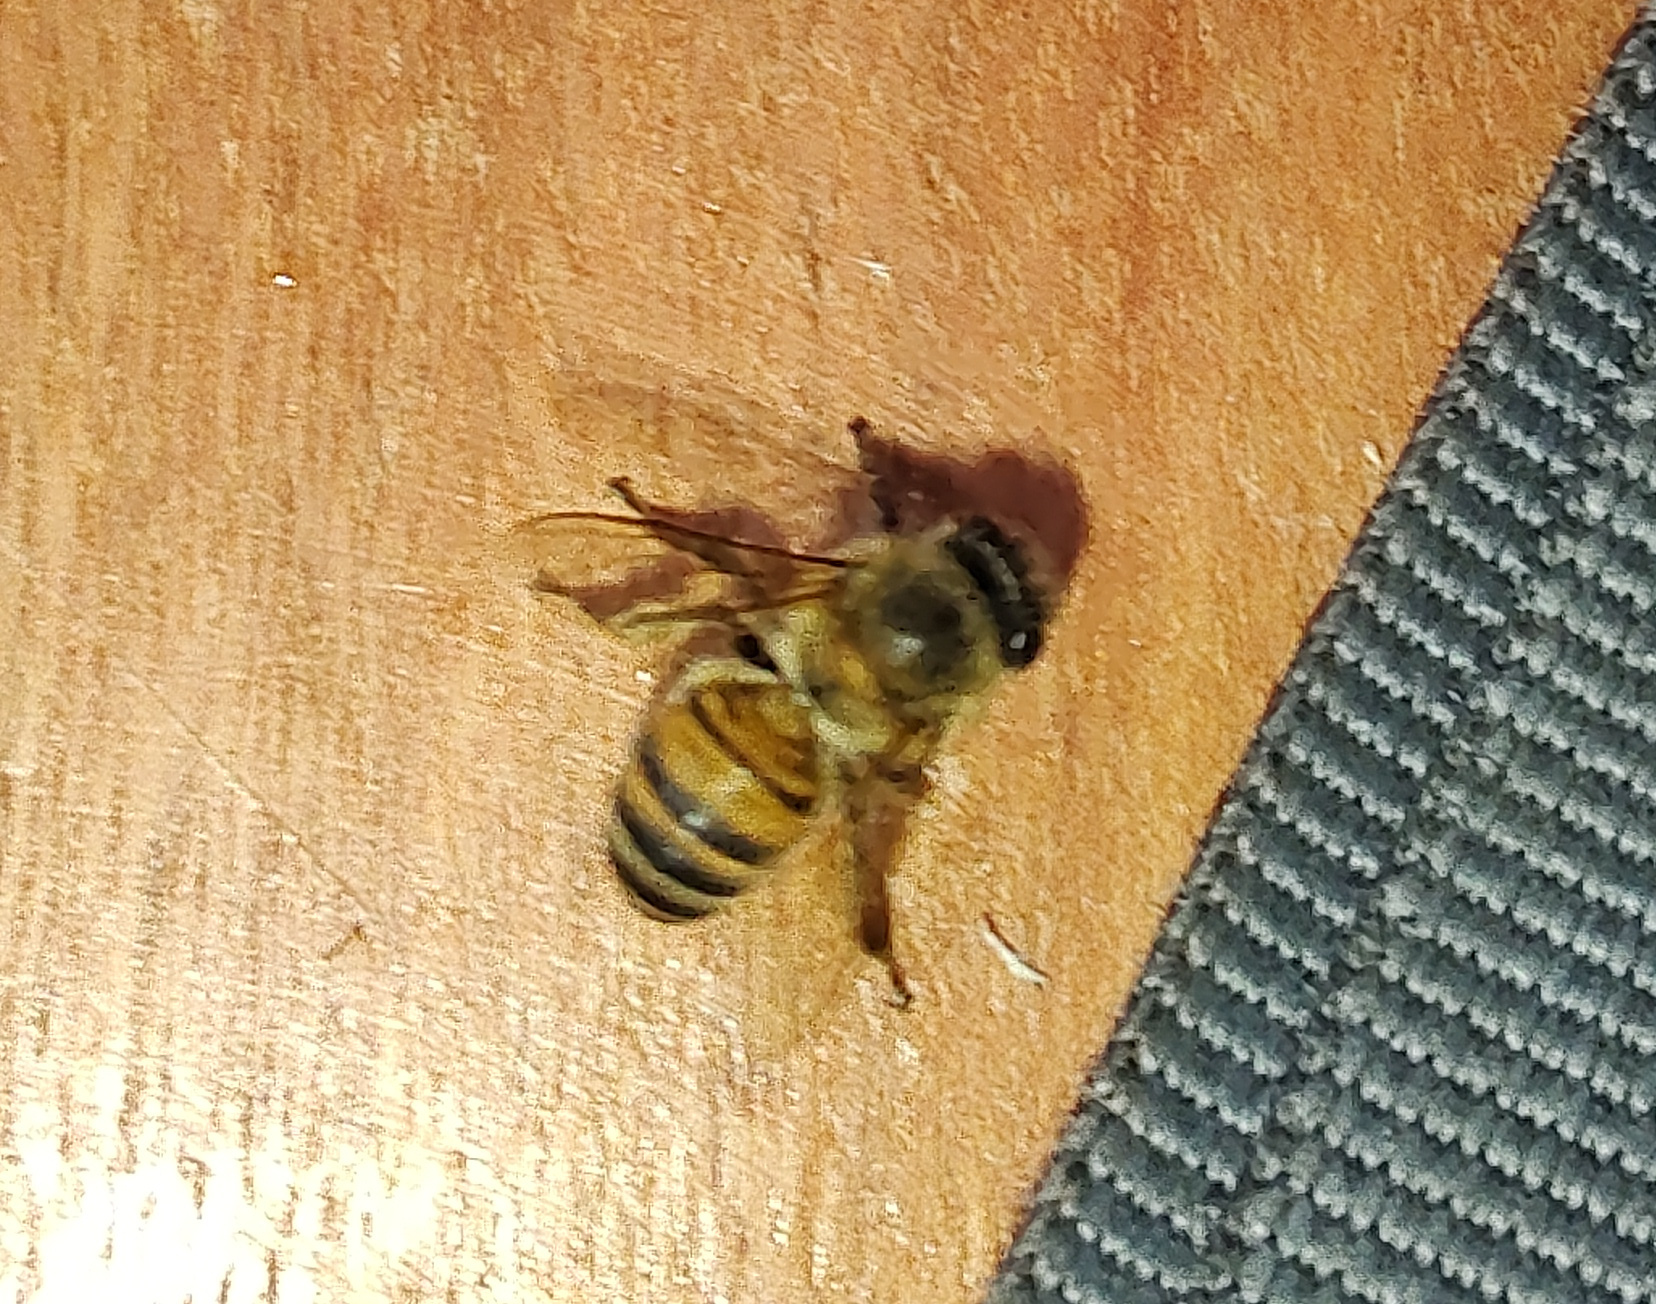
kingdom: Animalia
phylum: Arthropoda
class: Insecta
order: Hymenoptera
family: Apidae
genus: Apis
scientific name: Apis mellifera
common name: Honey bee
